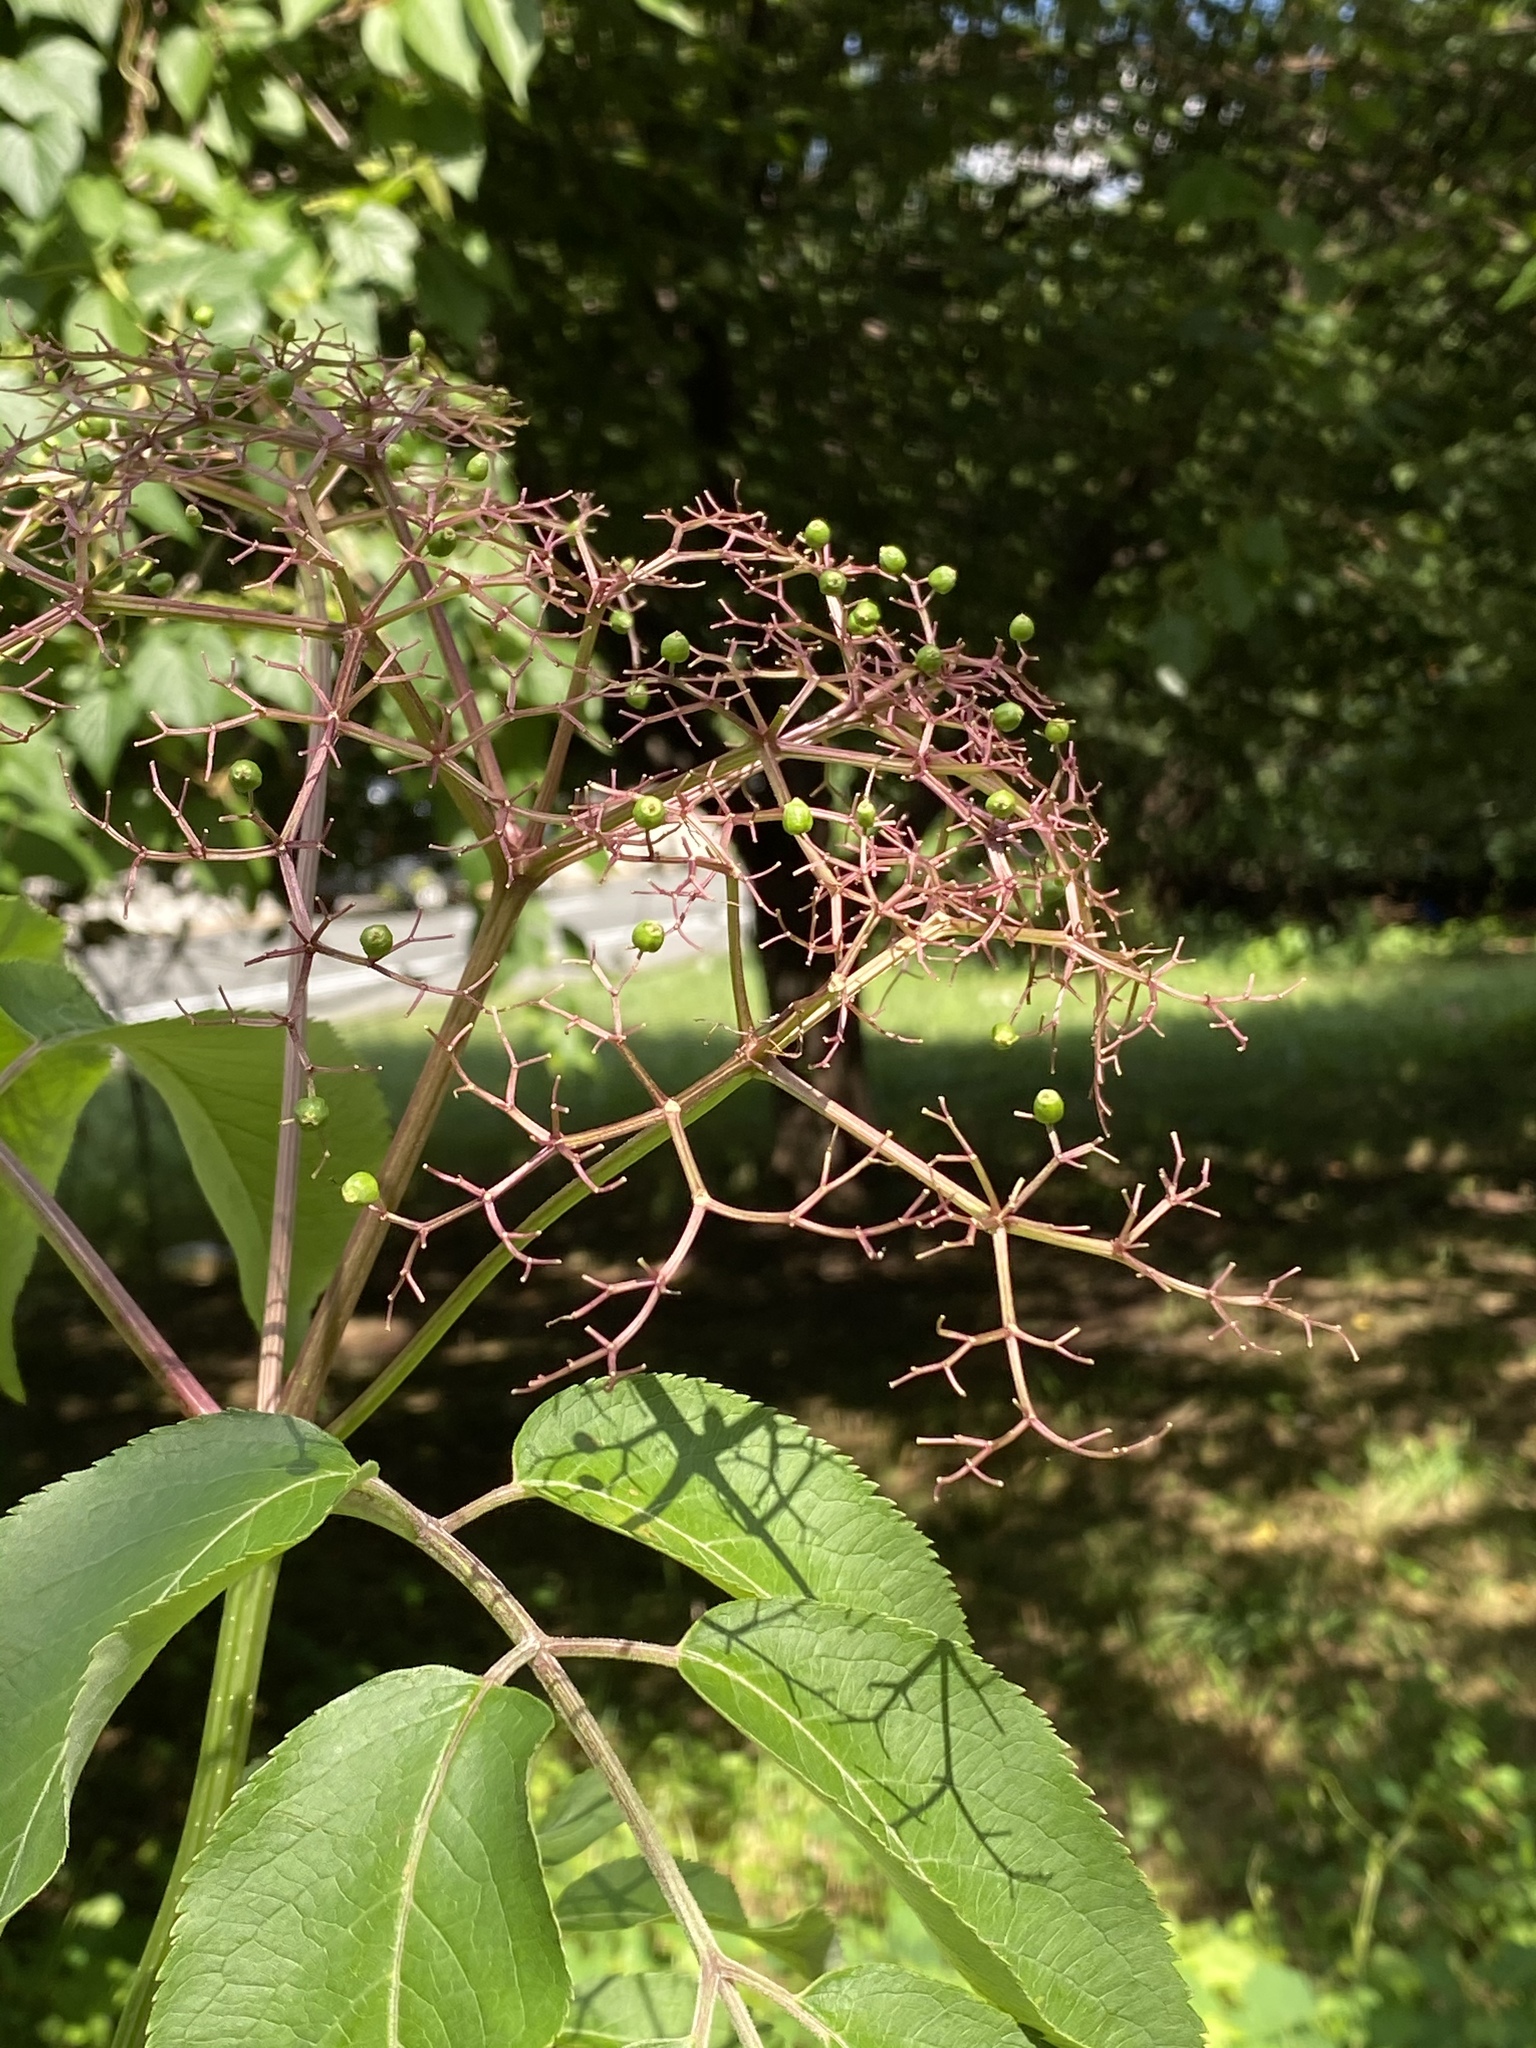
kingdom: Plantae
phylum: Tracheophyta
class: Magnoliopsida
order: Dipsacales
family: Viburnaceae
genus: Sambucus
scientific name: Sambucus canadensis
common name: American elder
